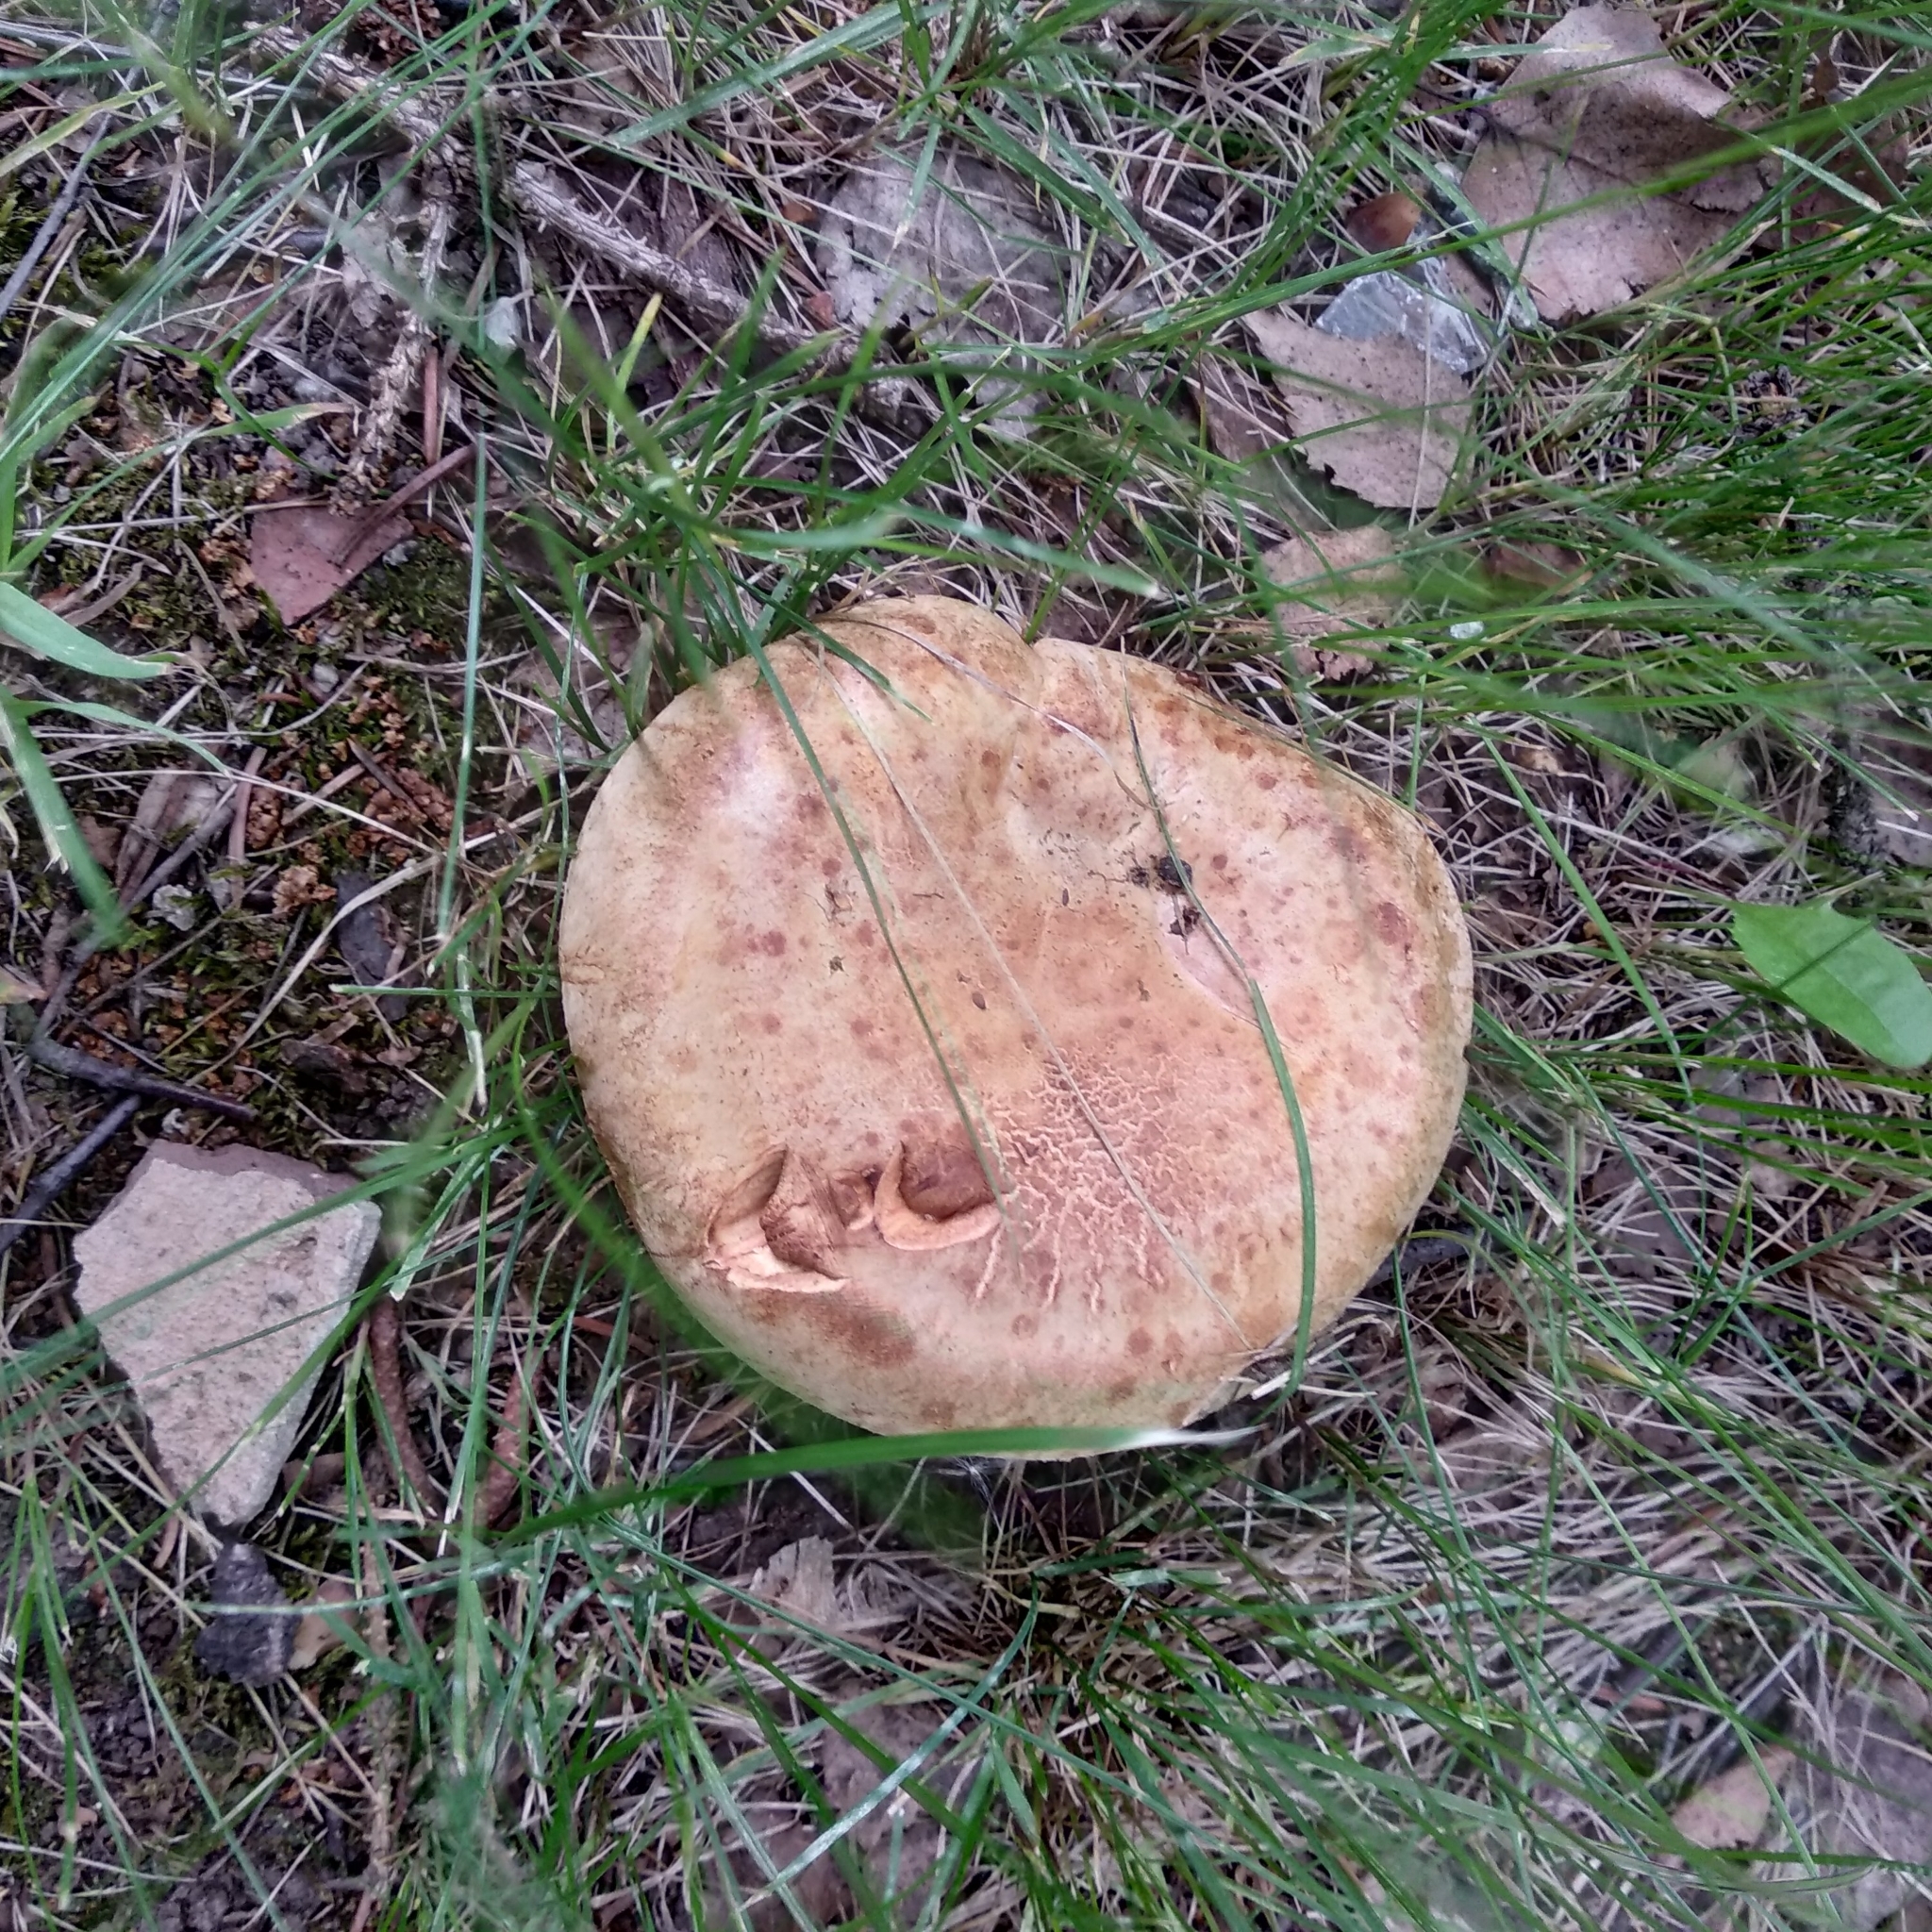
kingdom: Fungi
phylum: Basidiomycota
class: Agaricomycetes
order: Boletales
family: Paxillaceae
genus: Paxillus
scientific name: Paxillus involutus
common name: Brown roll rim
